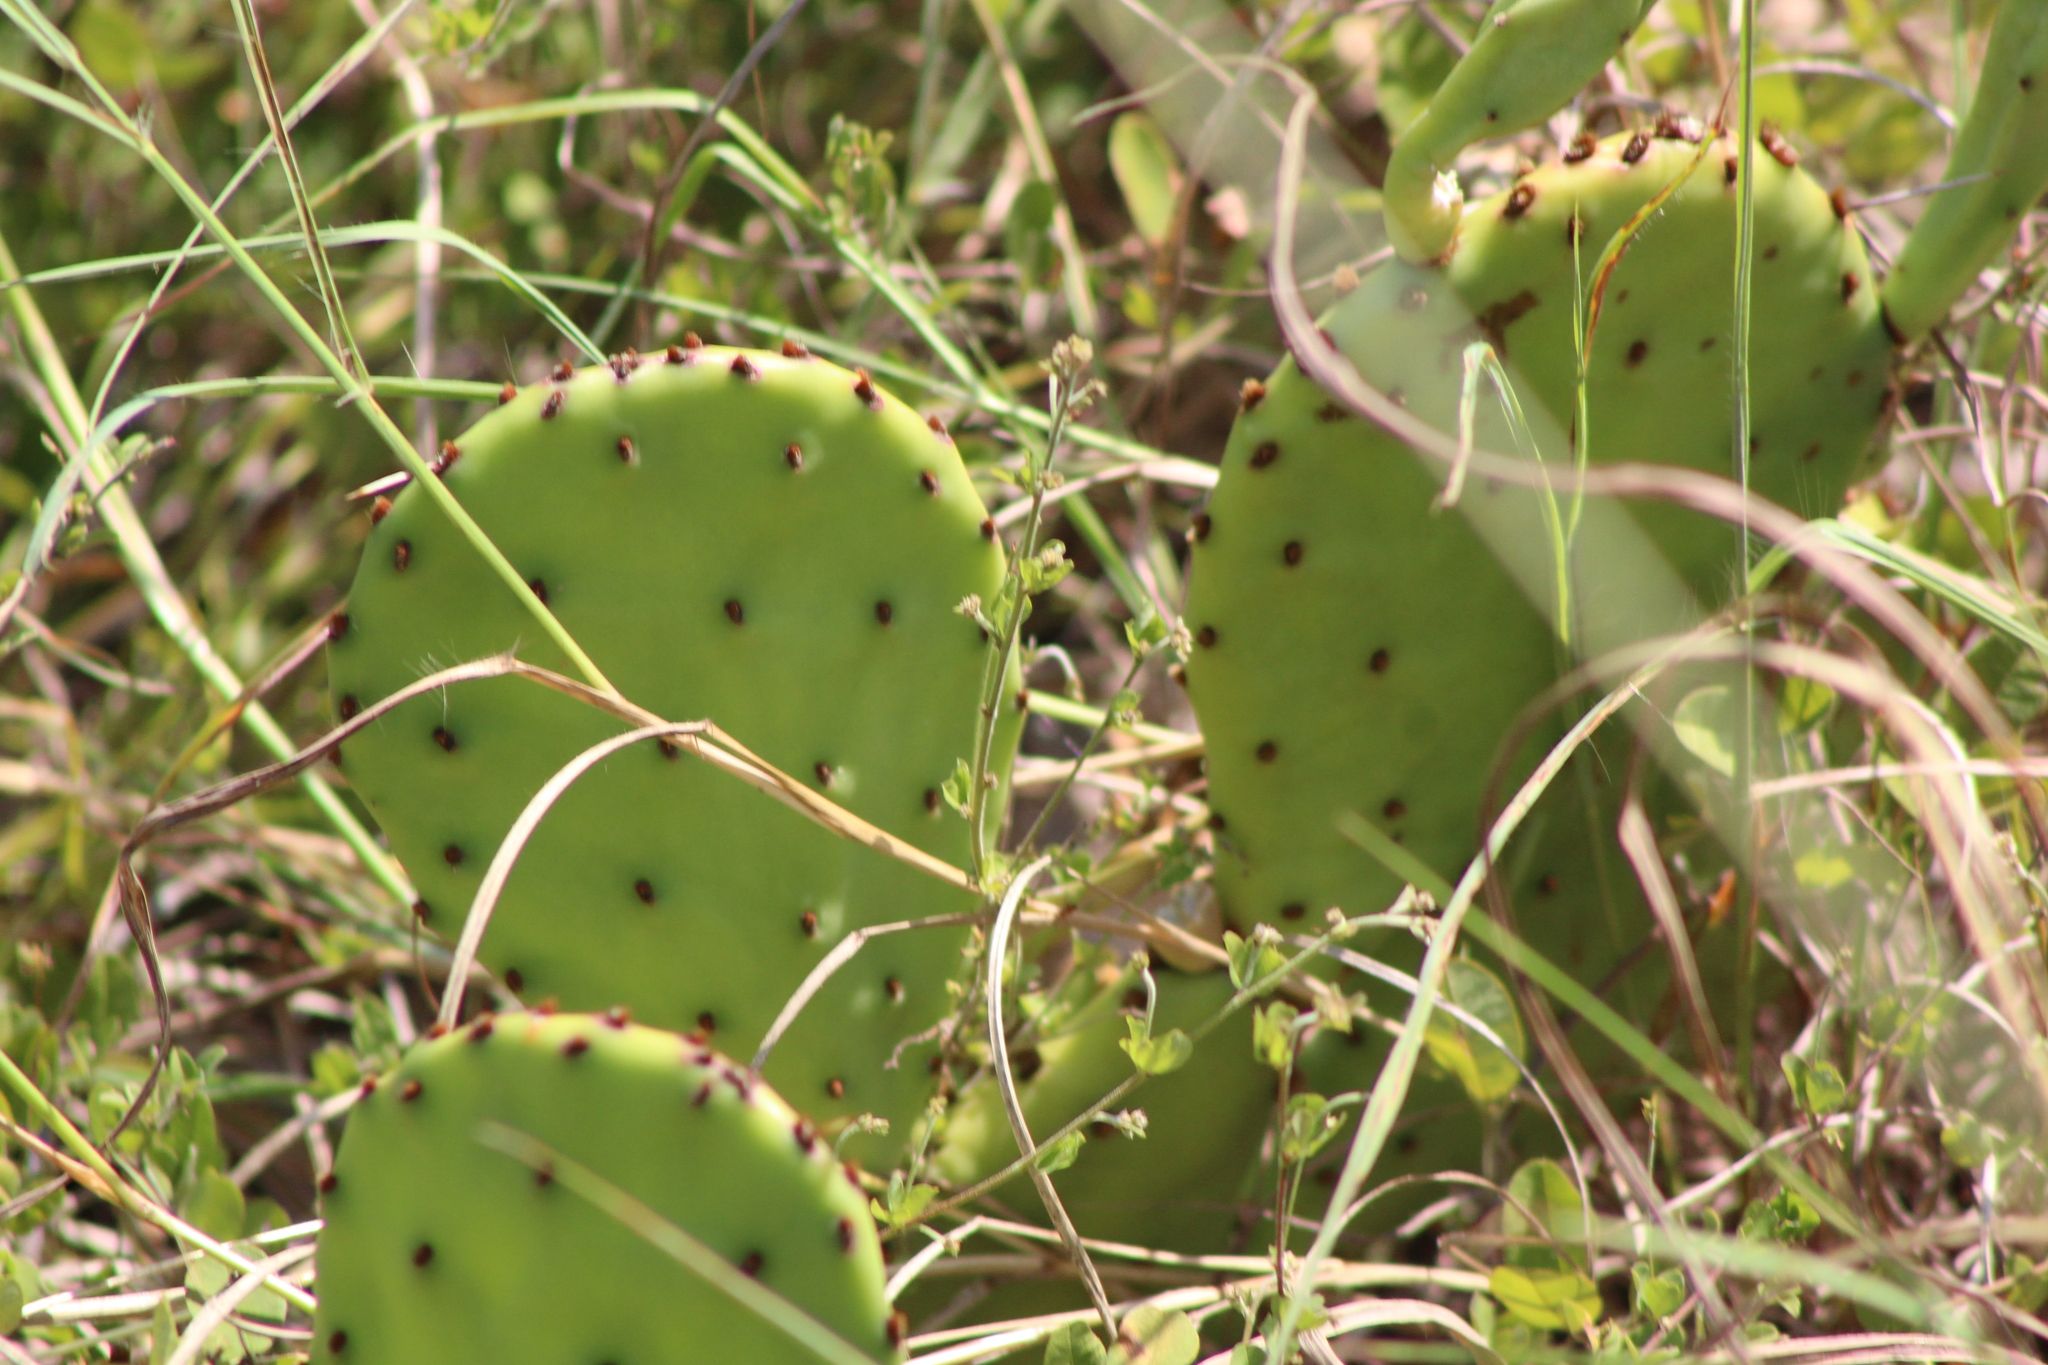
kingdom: Plantae
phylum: Tracheophyta
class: Magnoliopsida
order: Caryophyllales
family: Cactaceae
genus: Opuntia
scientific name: Opuntia macrorhiza
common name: Grassland pricklypear
